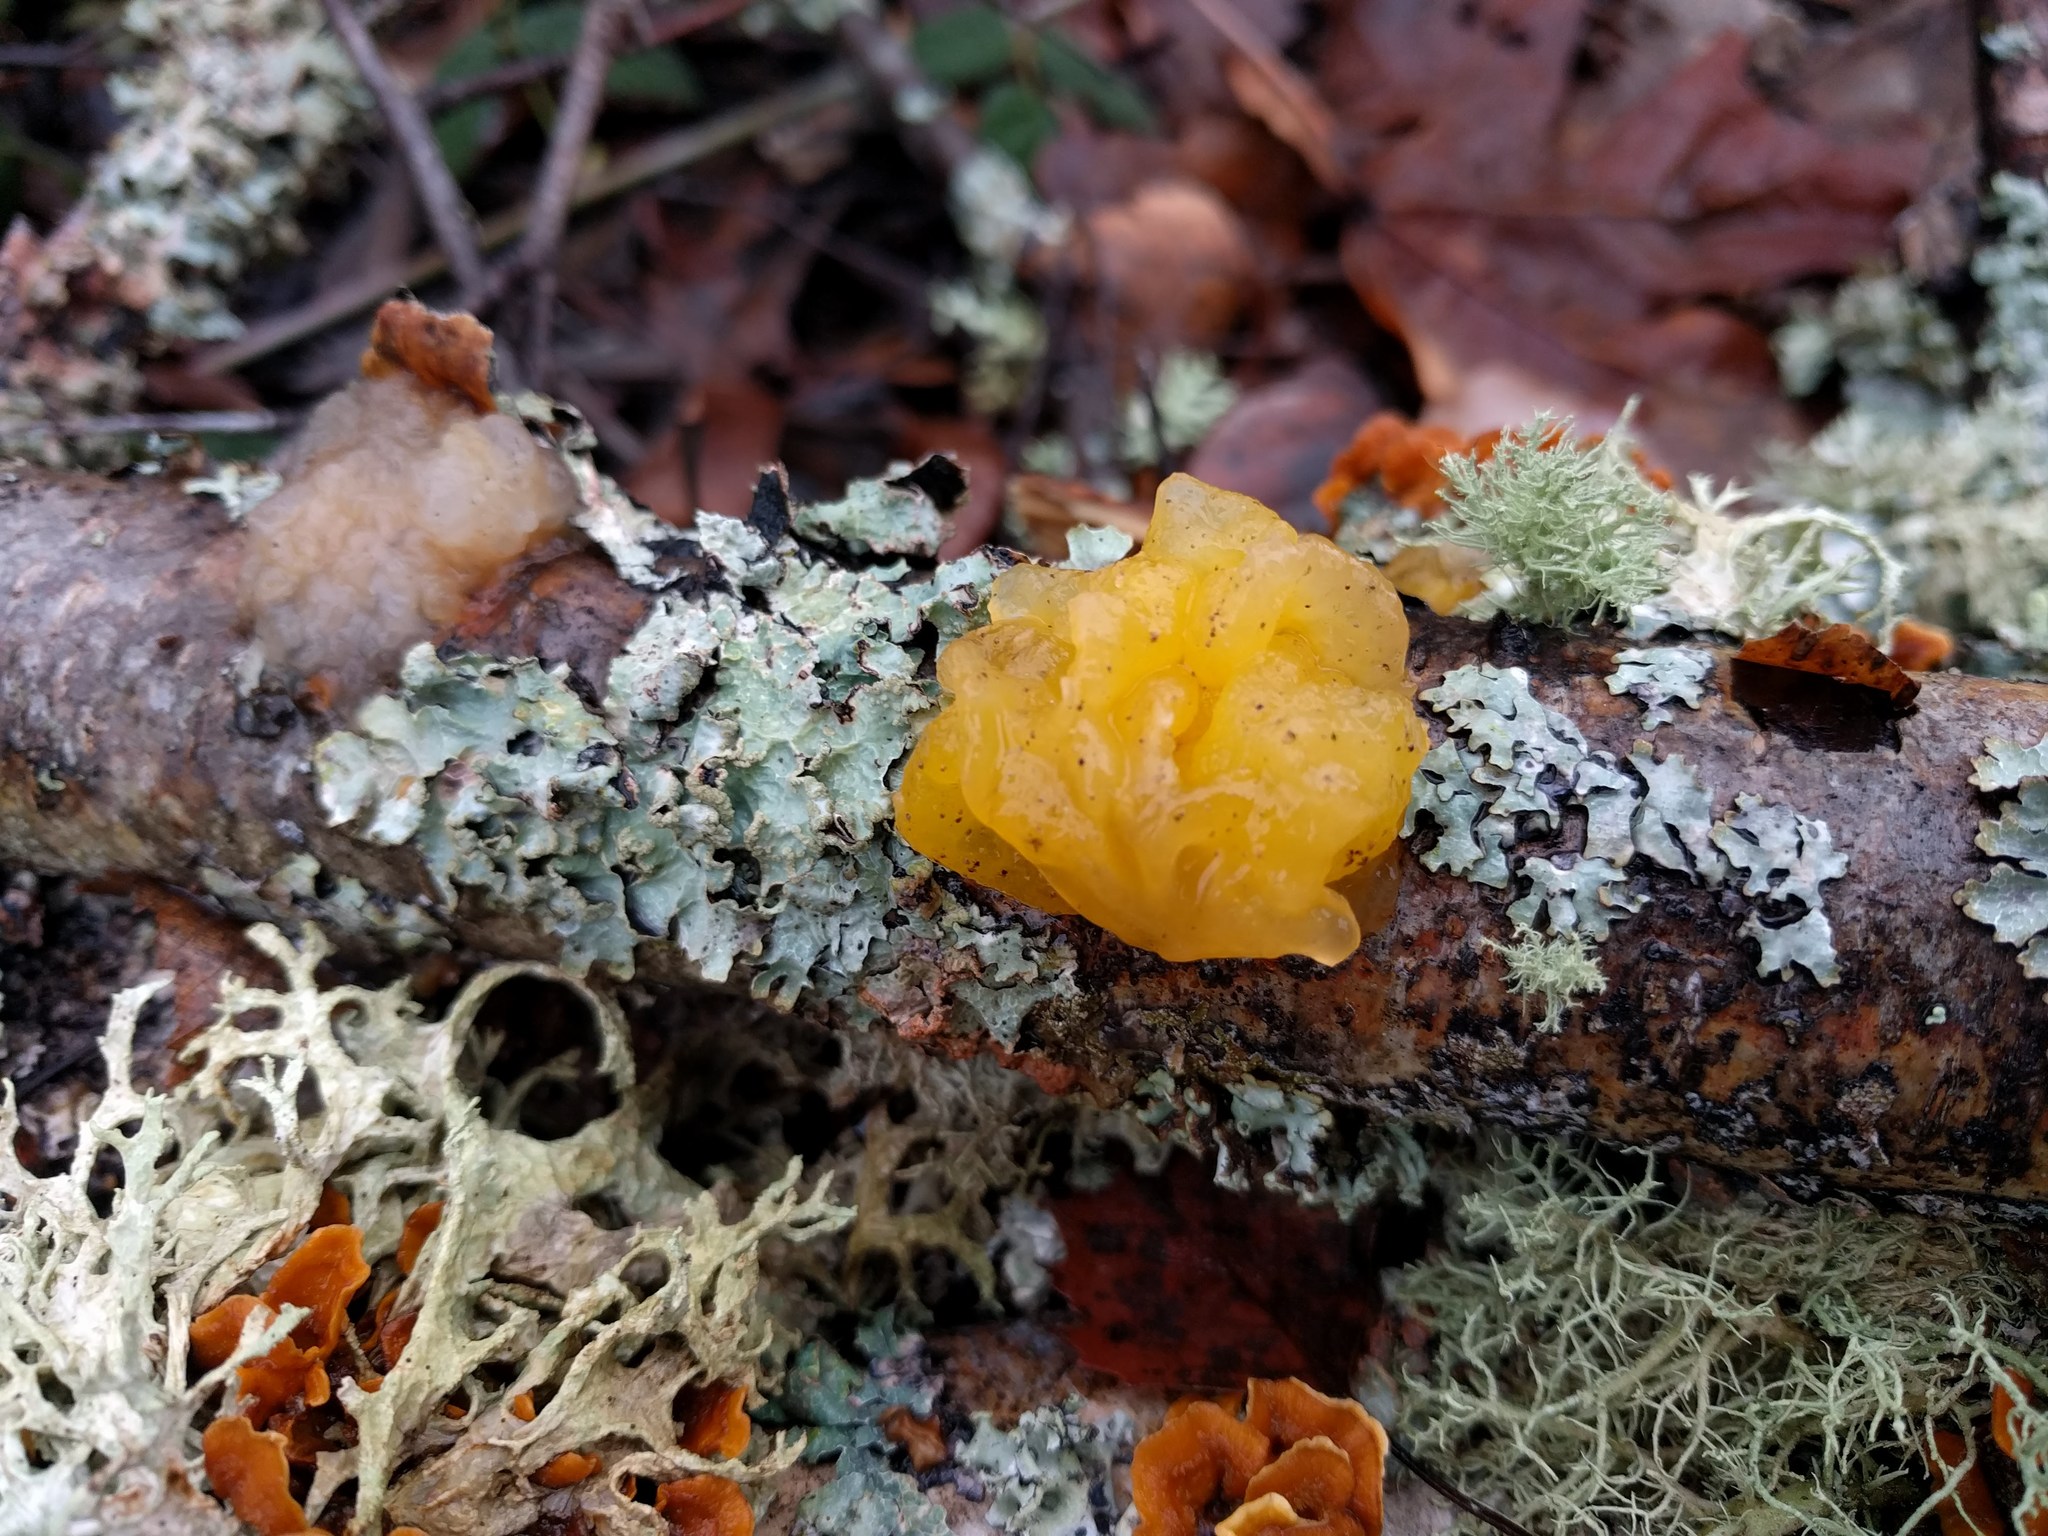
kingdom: Fungi
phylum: Basidiomycota
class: Tremellomycetes
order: Tremellales
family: Naemateliaceae
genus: Naematelia
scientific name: Naematelia aurantia
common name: Golden ear
